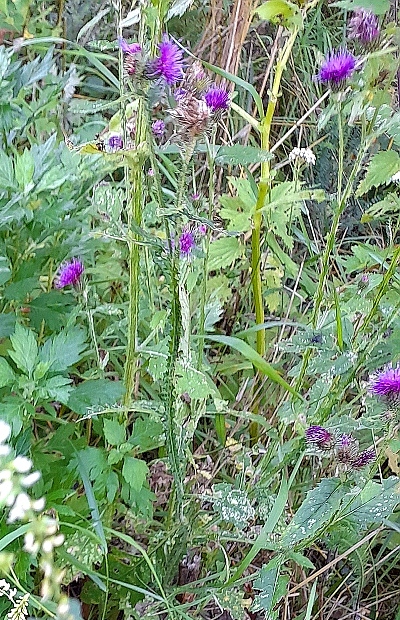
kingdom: Plantae
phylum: Tracheophyta
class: Magnoliopsida
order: Asterales
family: Asteraceae
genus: Carduus
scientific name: Carduus crispus
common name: Welted thistle
